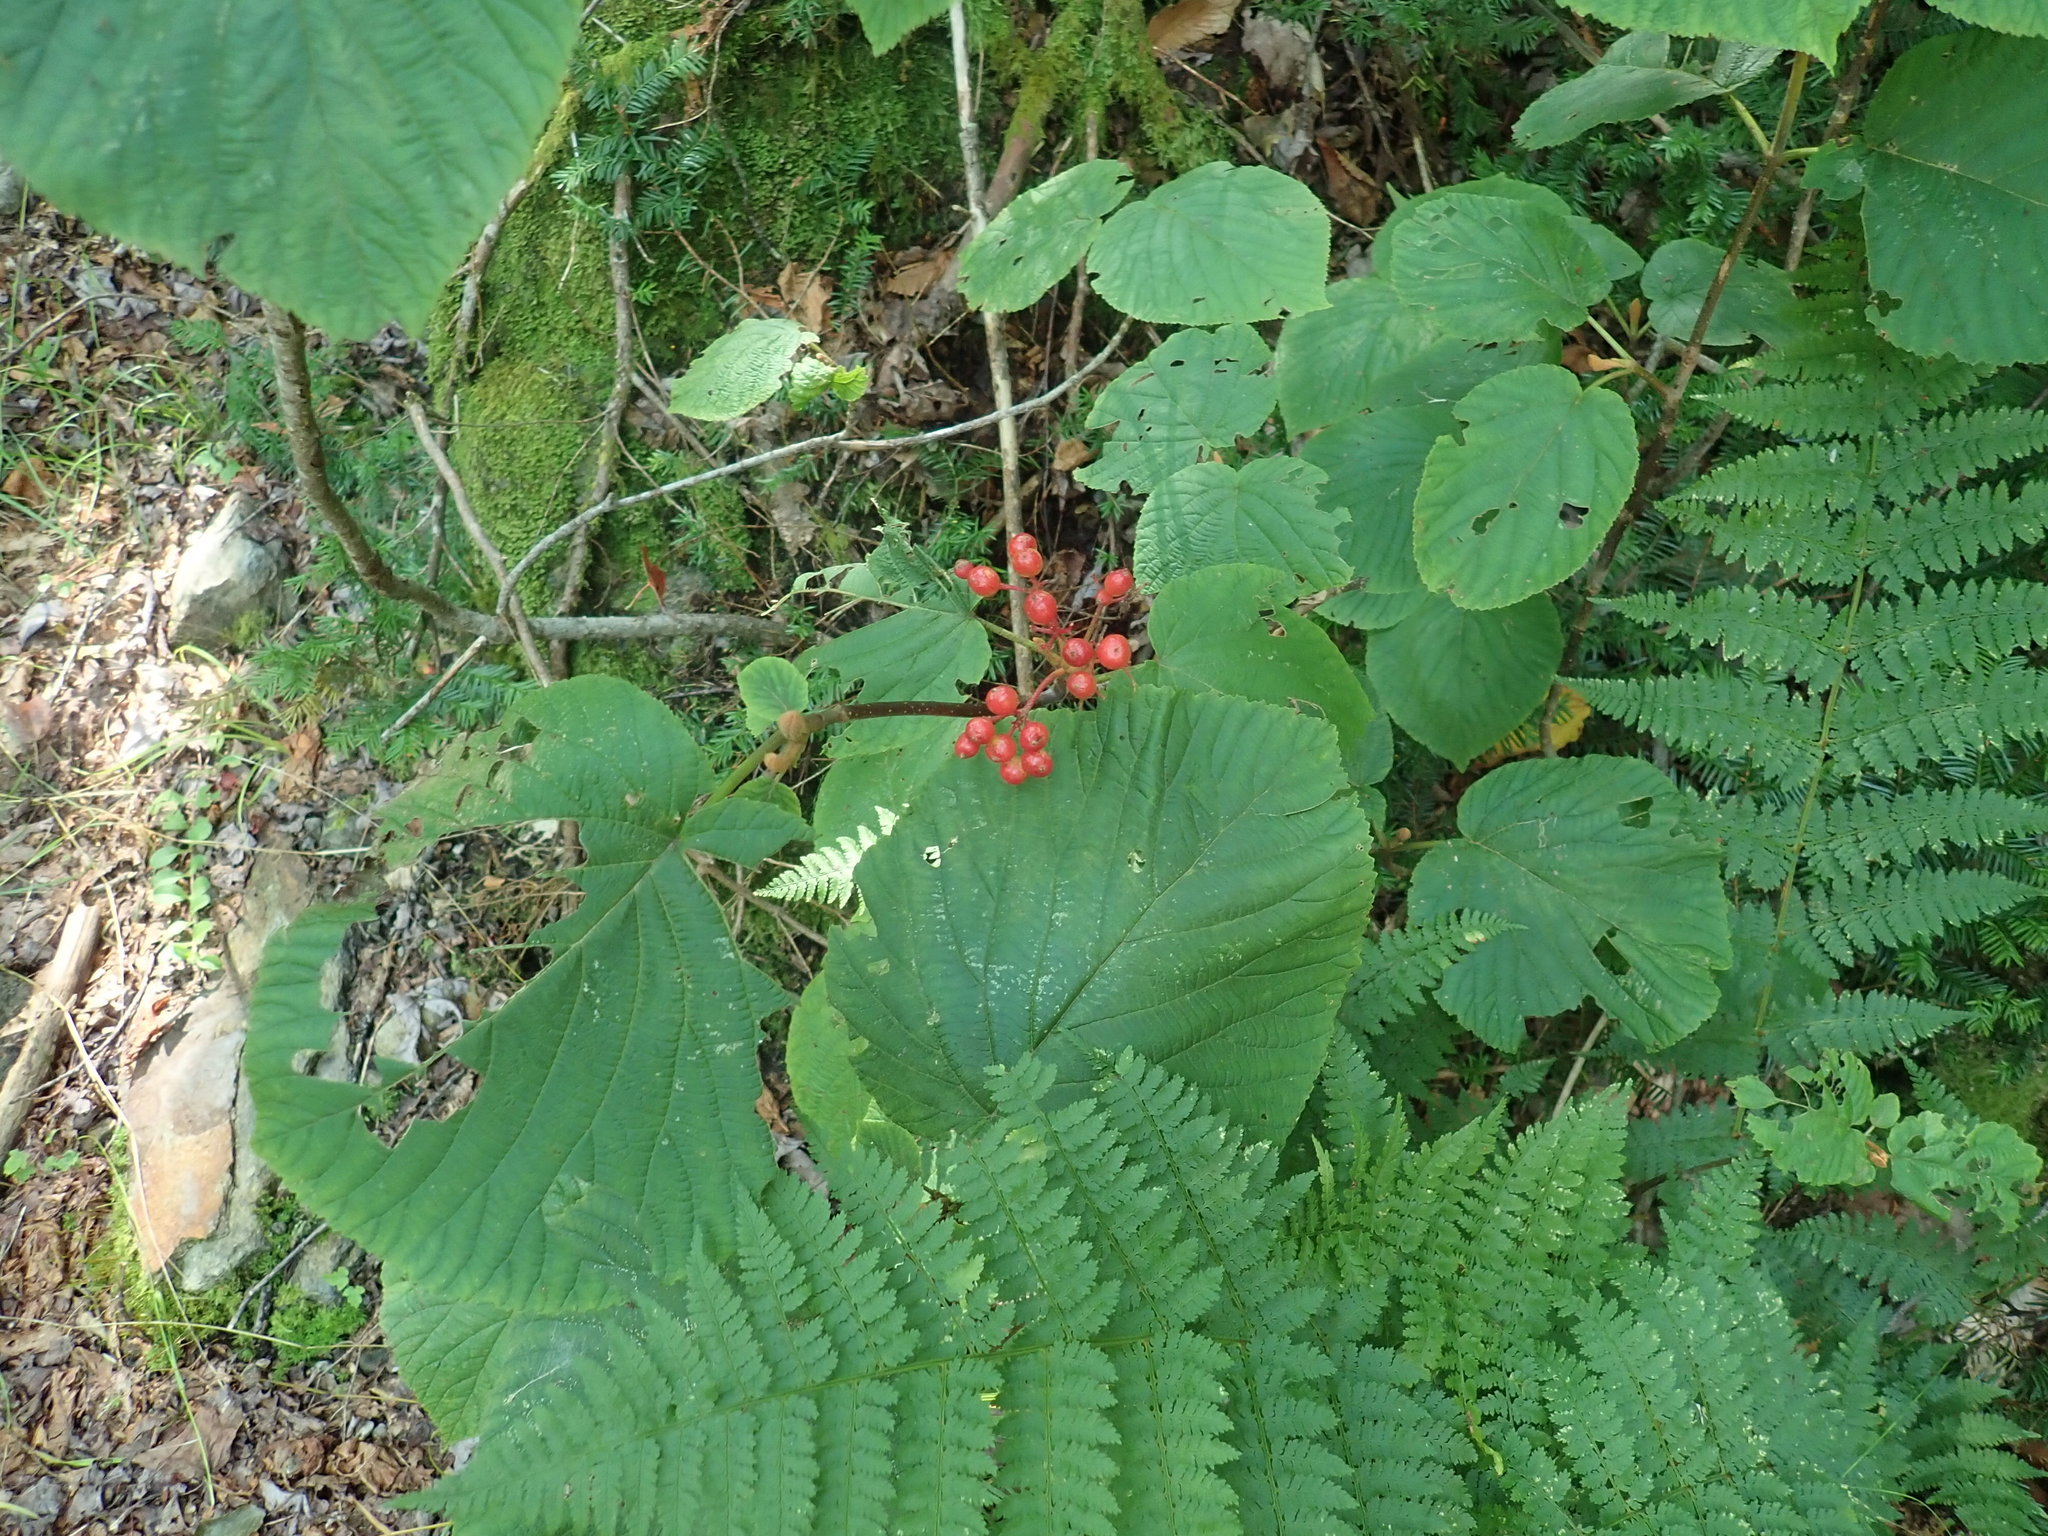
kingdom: Plantae
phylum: Tracheophyta
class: Magnoliopsida
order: Dipsacales
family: Viburnaceae
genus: Viburnum
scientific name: Viburnum lantanoides
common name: Hobblebush
